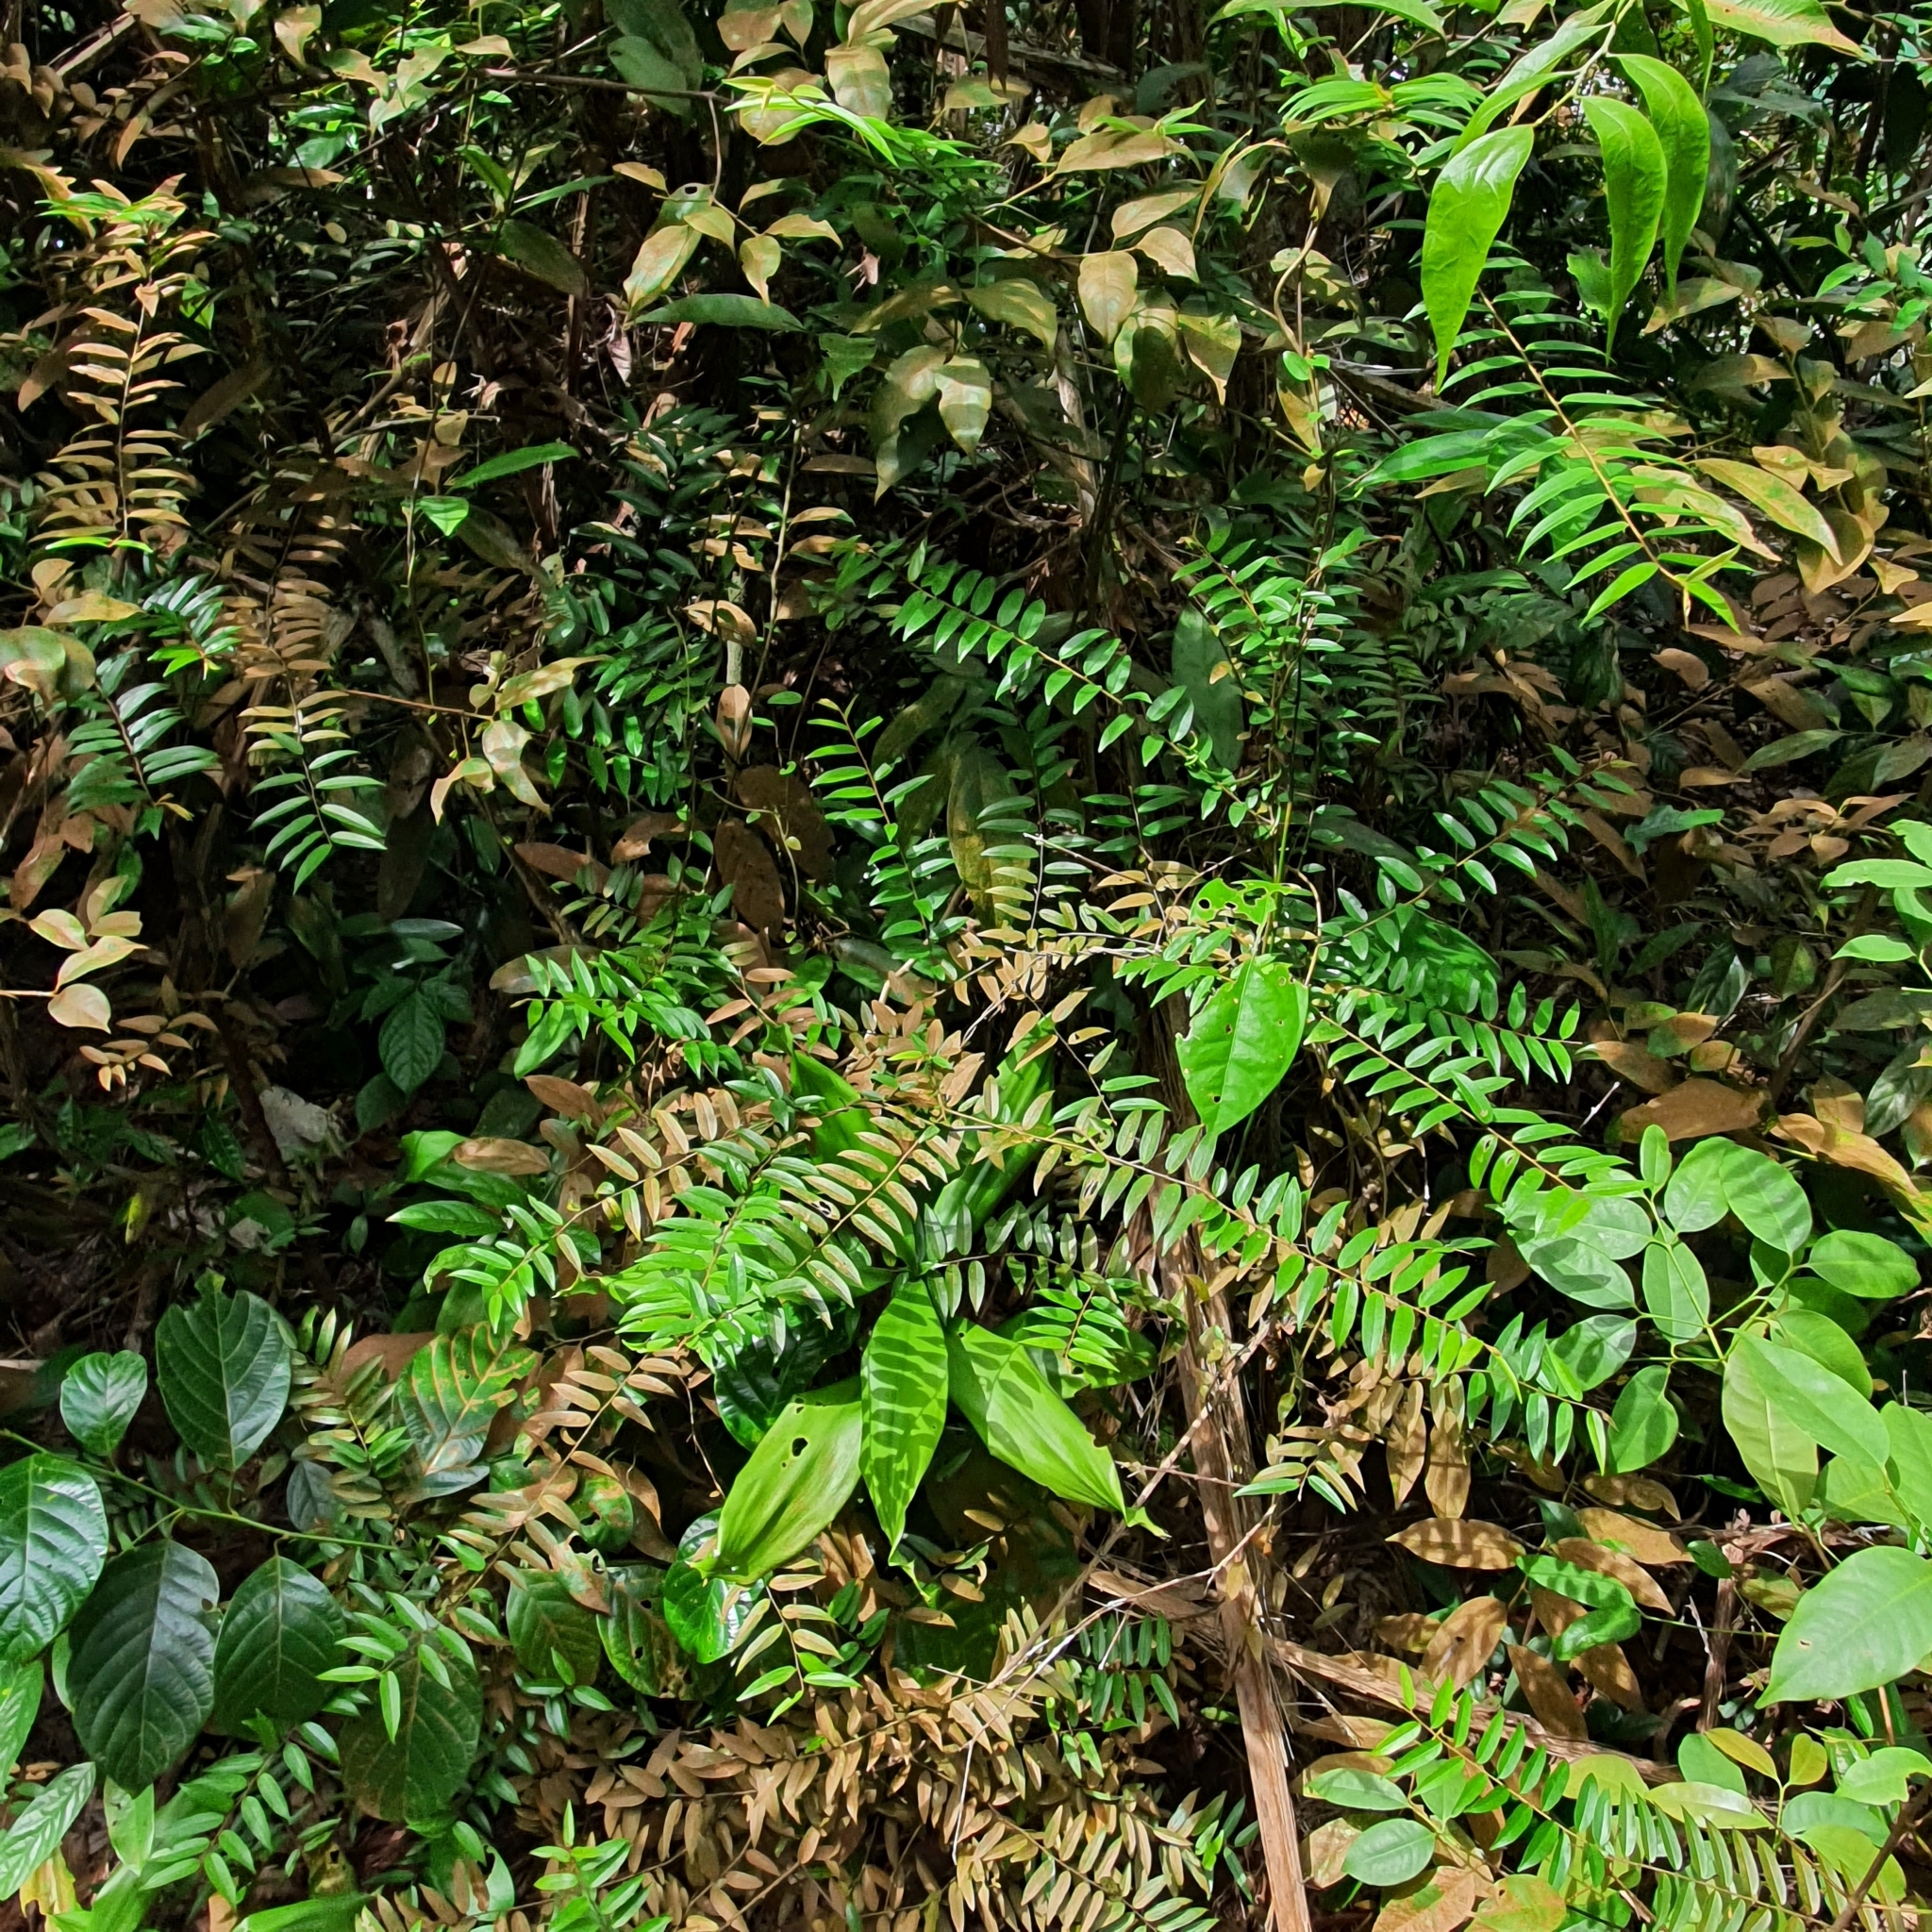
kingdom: Plantae
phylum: Tracheophyta
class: Magnoliopsida
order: Solanales
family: Convolvulaceae
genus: Erycibe
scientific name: Erycibe leucoxyloides
